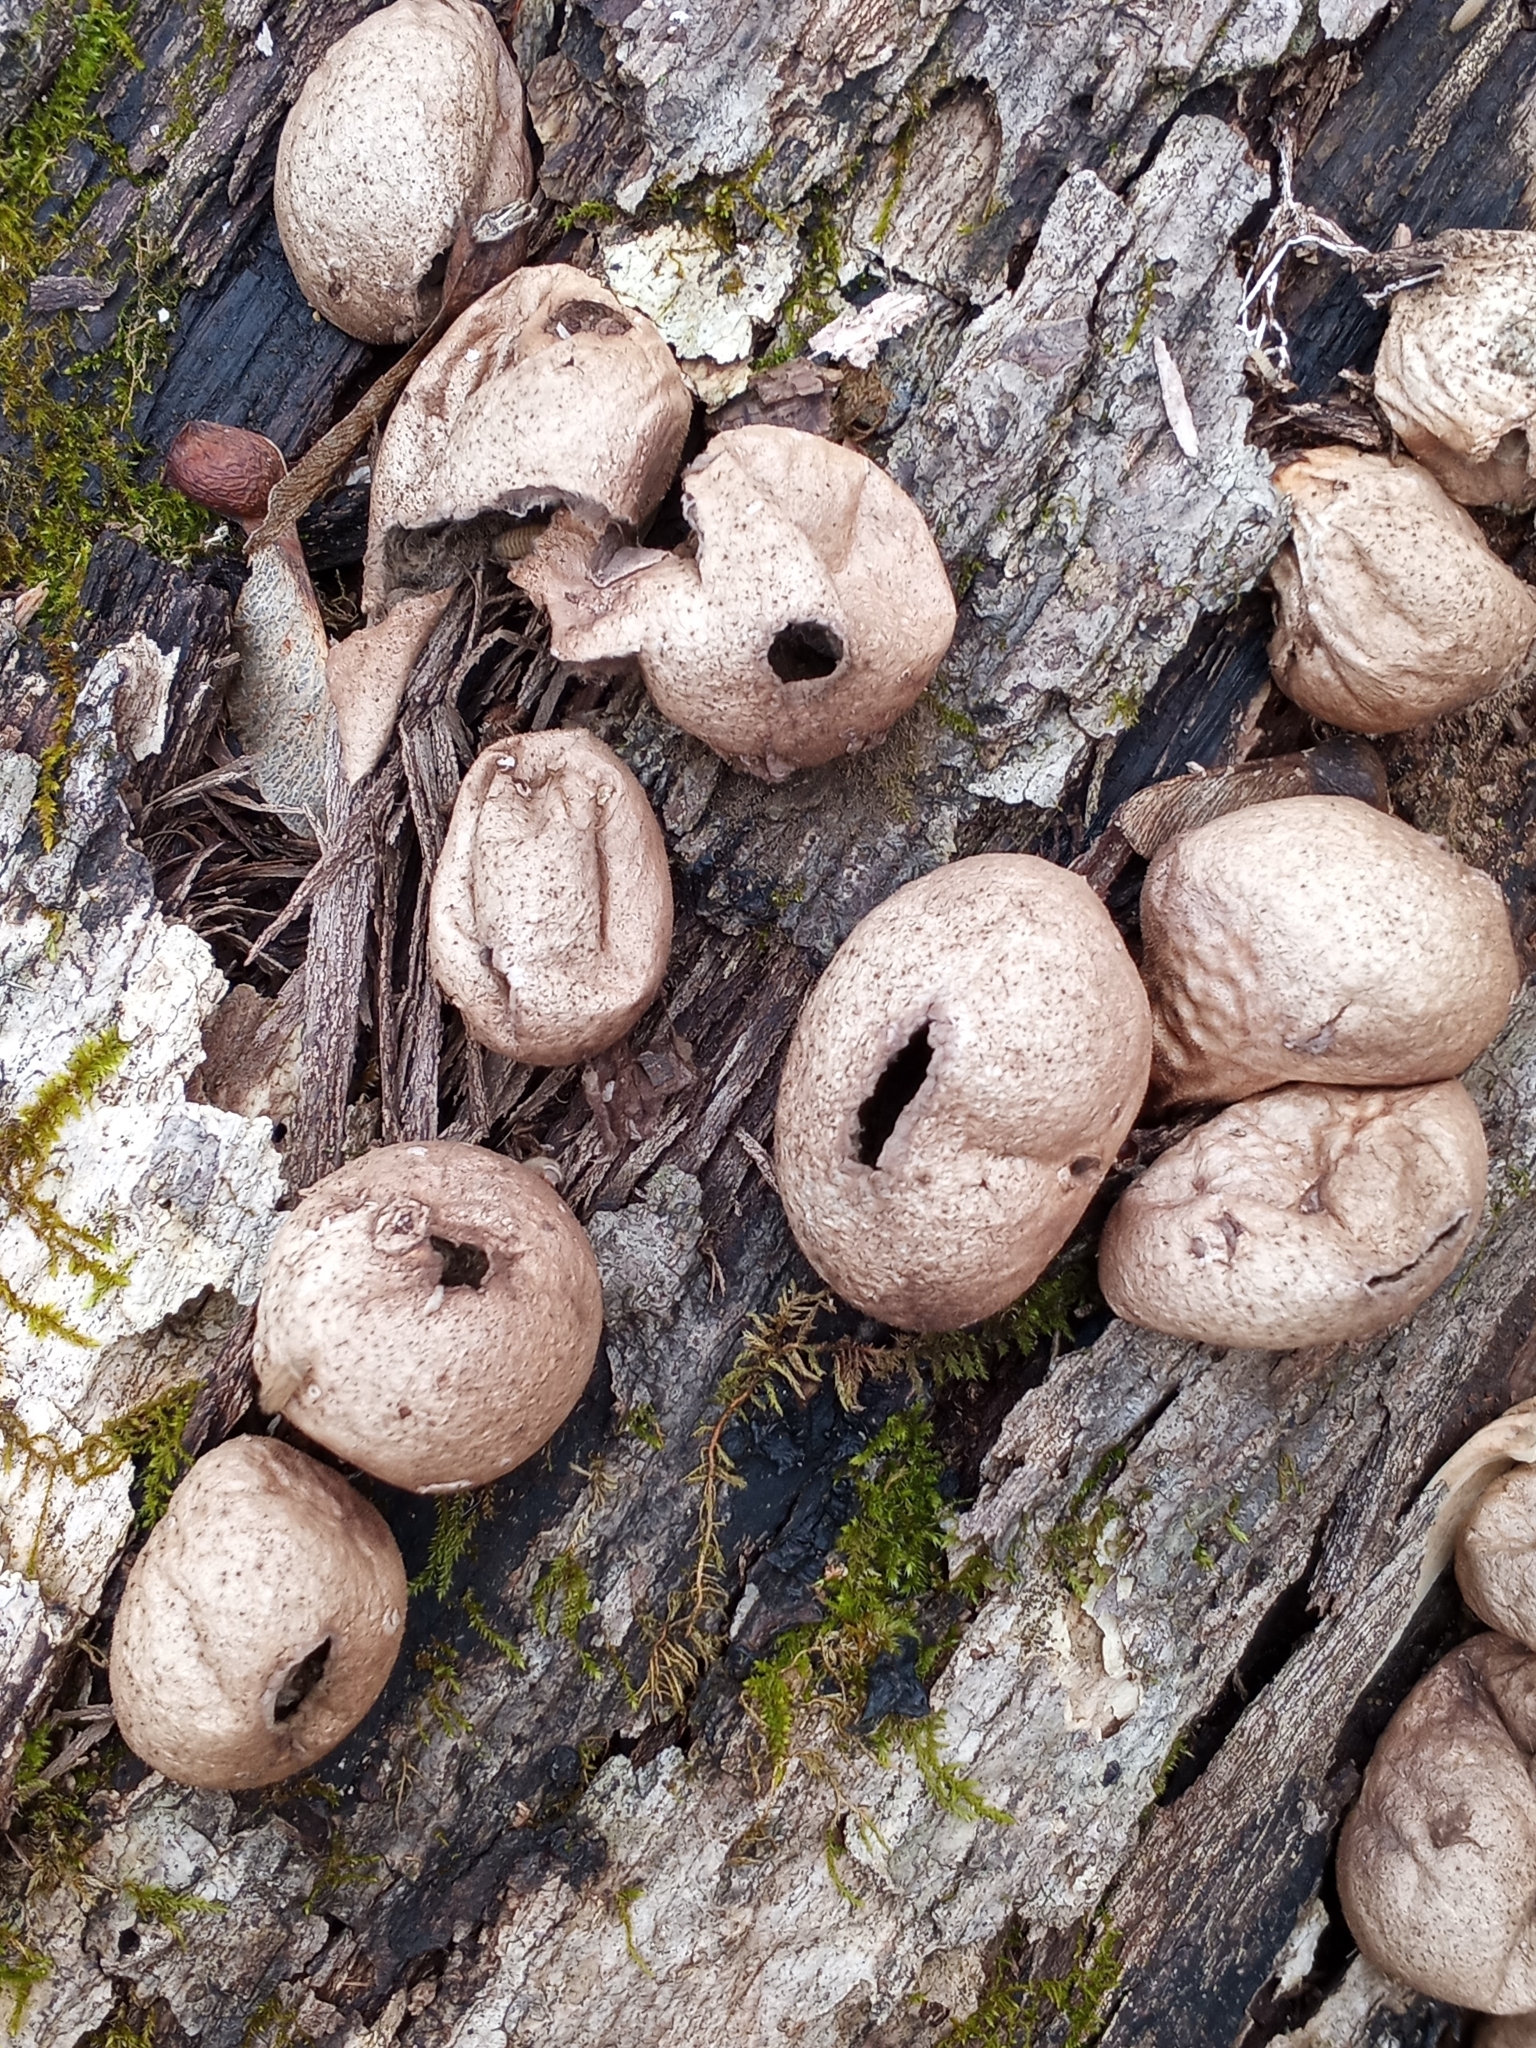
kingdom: Fungi
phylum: Basidiomycota
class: Agaricomycetes
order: Agaricales
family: Lycoperdaceae
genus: Apioperdon
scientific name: Apioperdon pyriforme
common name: Pear-shaped puffball
